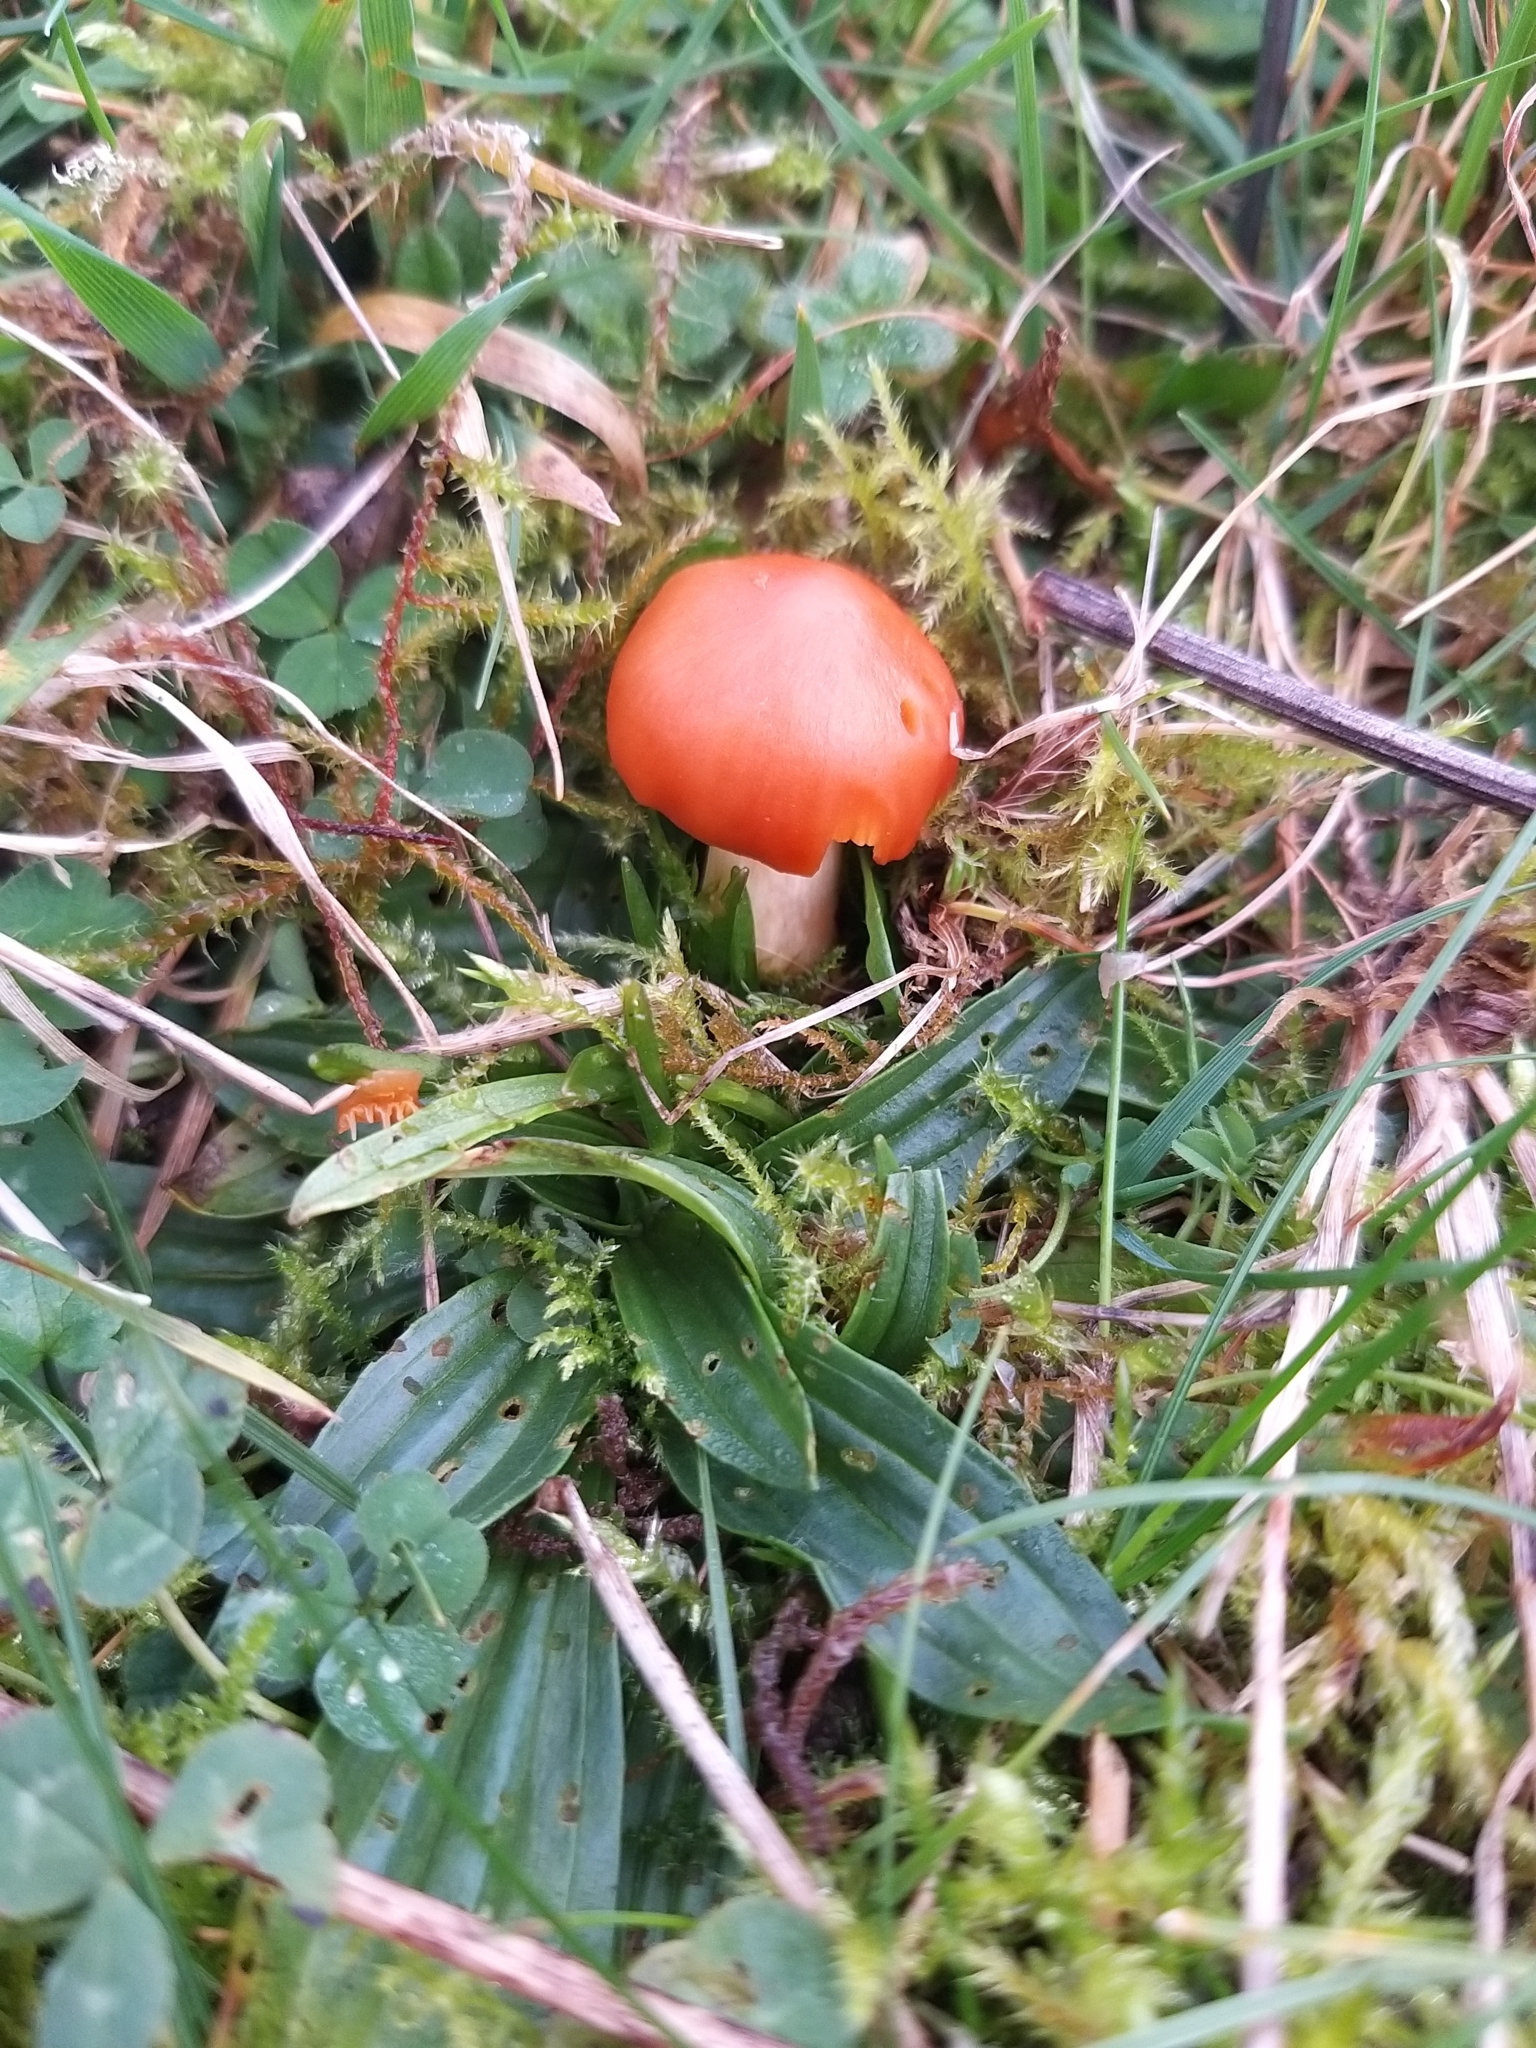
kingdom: Fungi
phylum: Basidiomycota
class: Agaricomycetes
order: Agaricales
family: Hygrophoraceae
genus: Cuphophyllus
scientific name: Cuphophyllus pratensis
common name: Meadow waxcap
